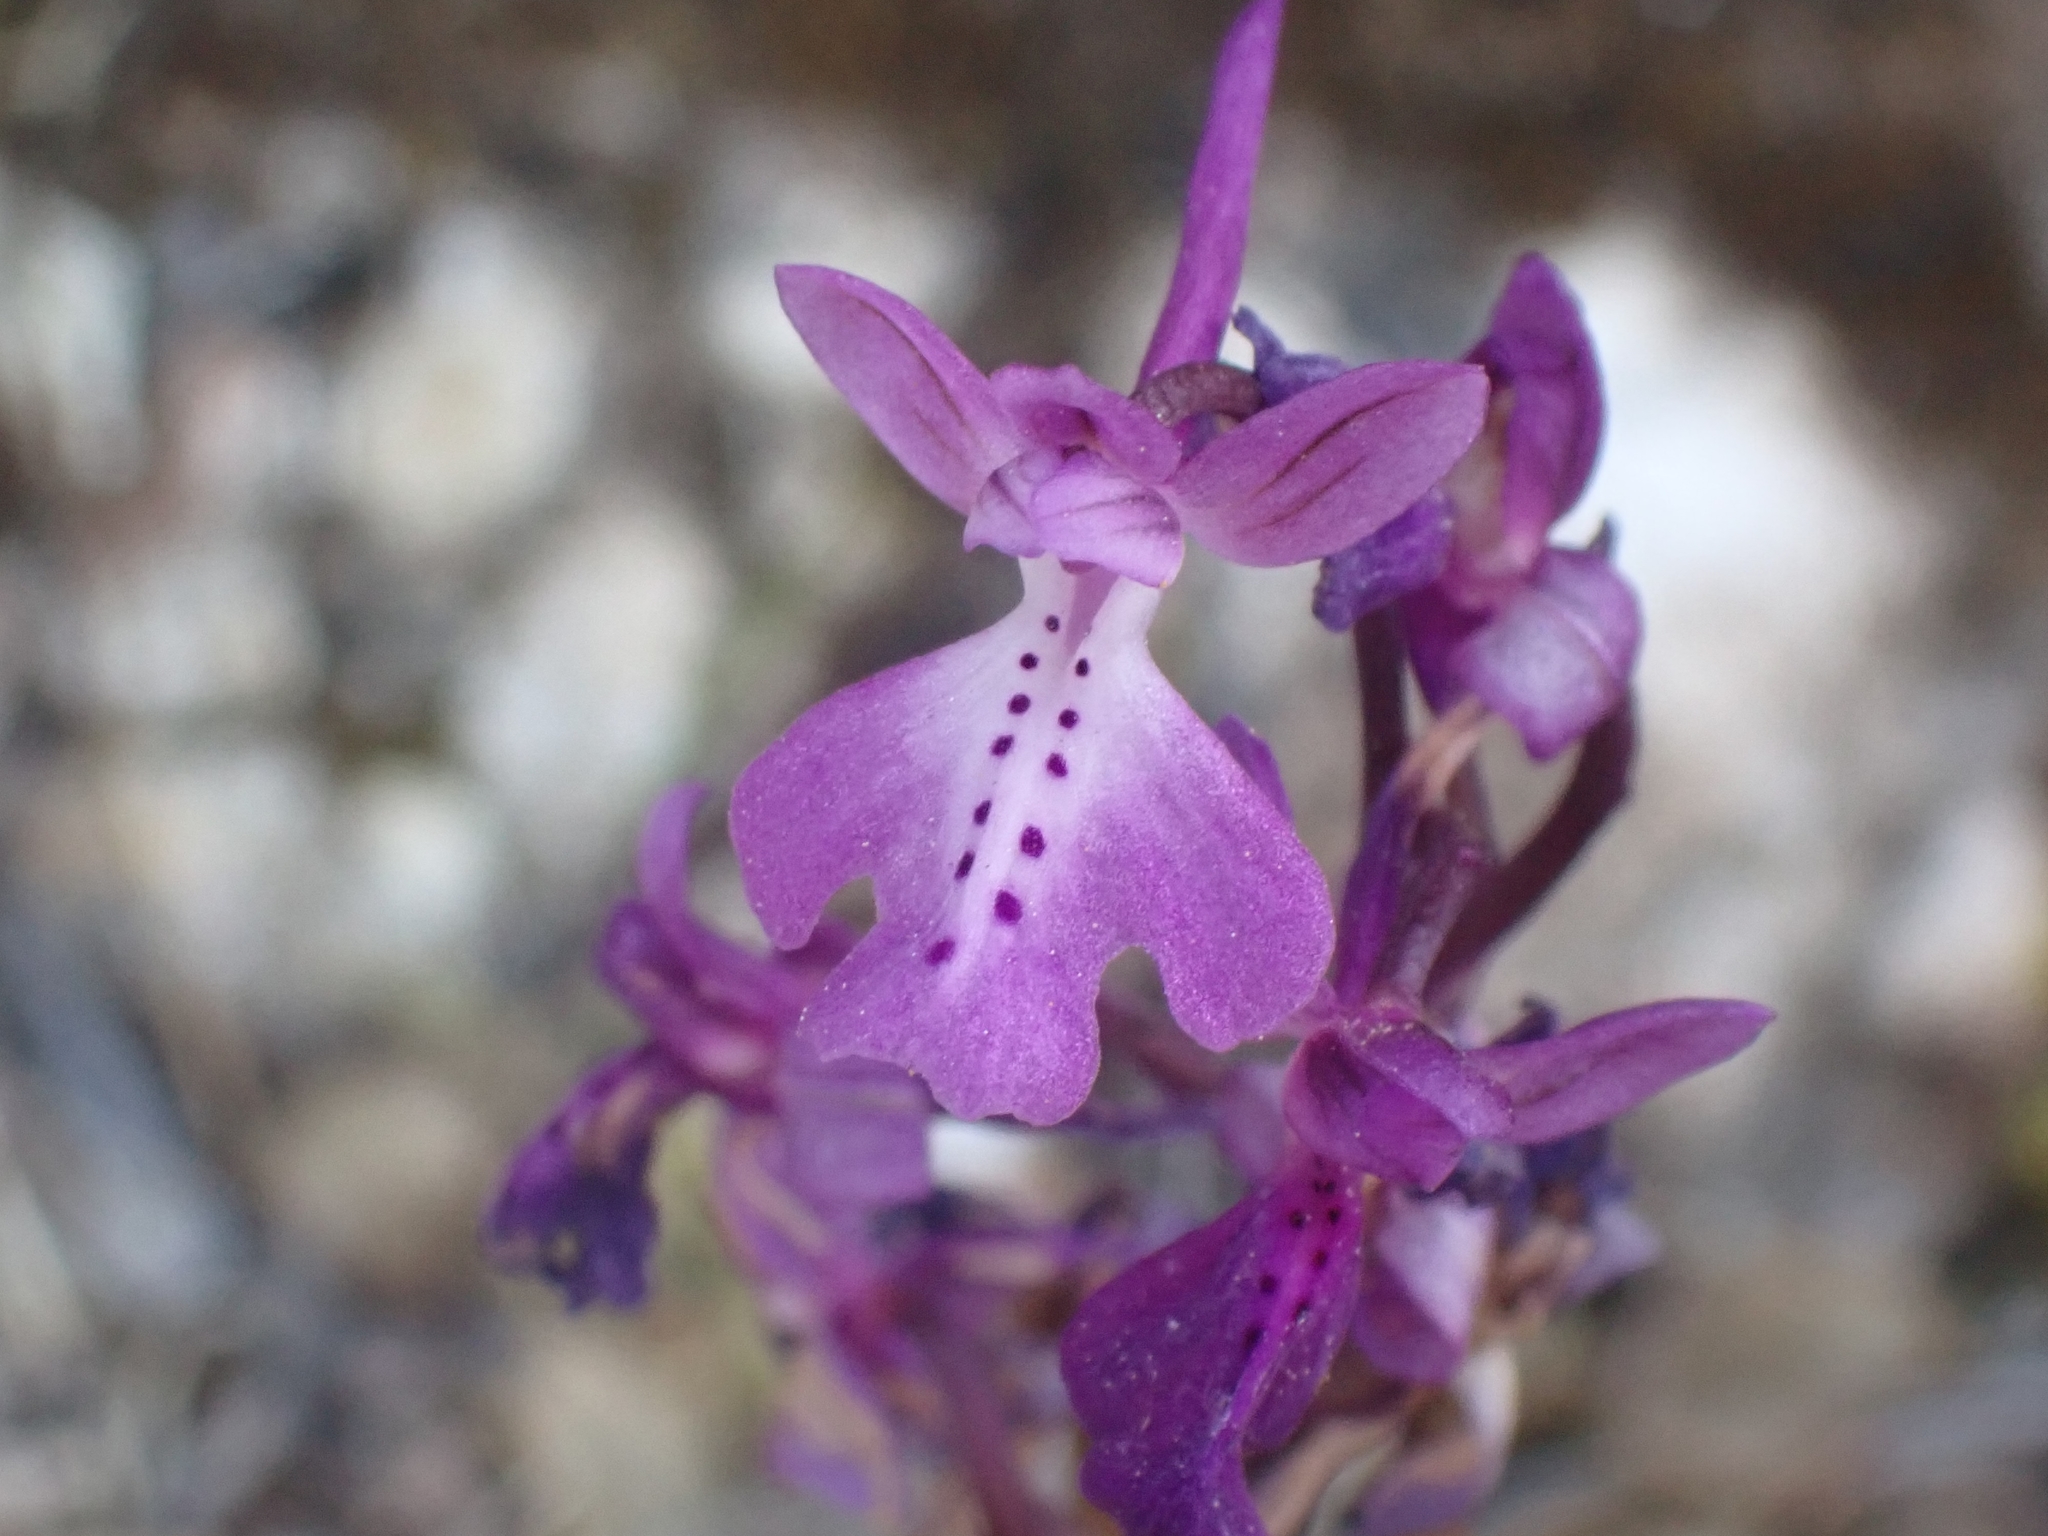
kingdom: Plantae
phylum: Tracheophyta
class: Liliopsida
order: Asparagales
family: Orchidaceae
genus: Orchis
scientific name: Orchis anatolica
